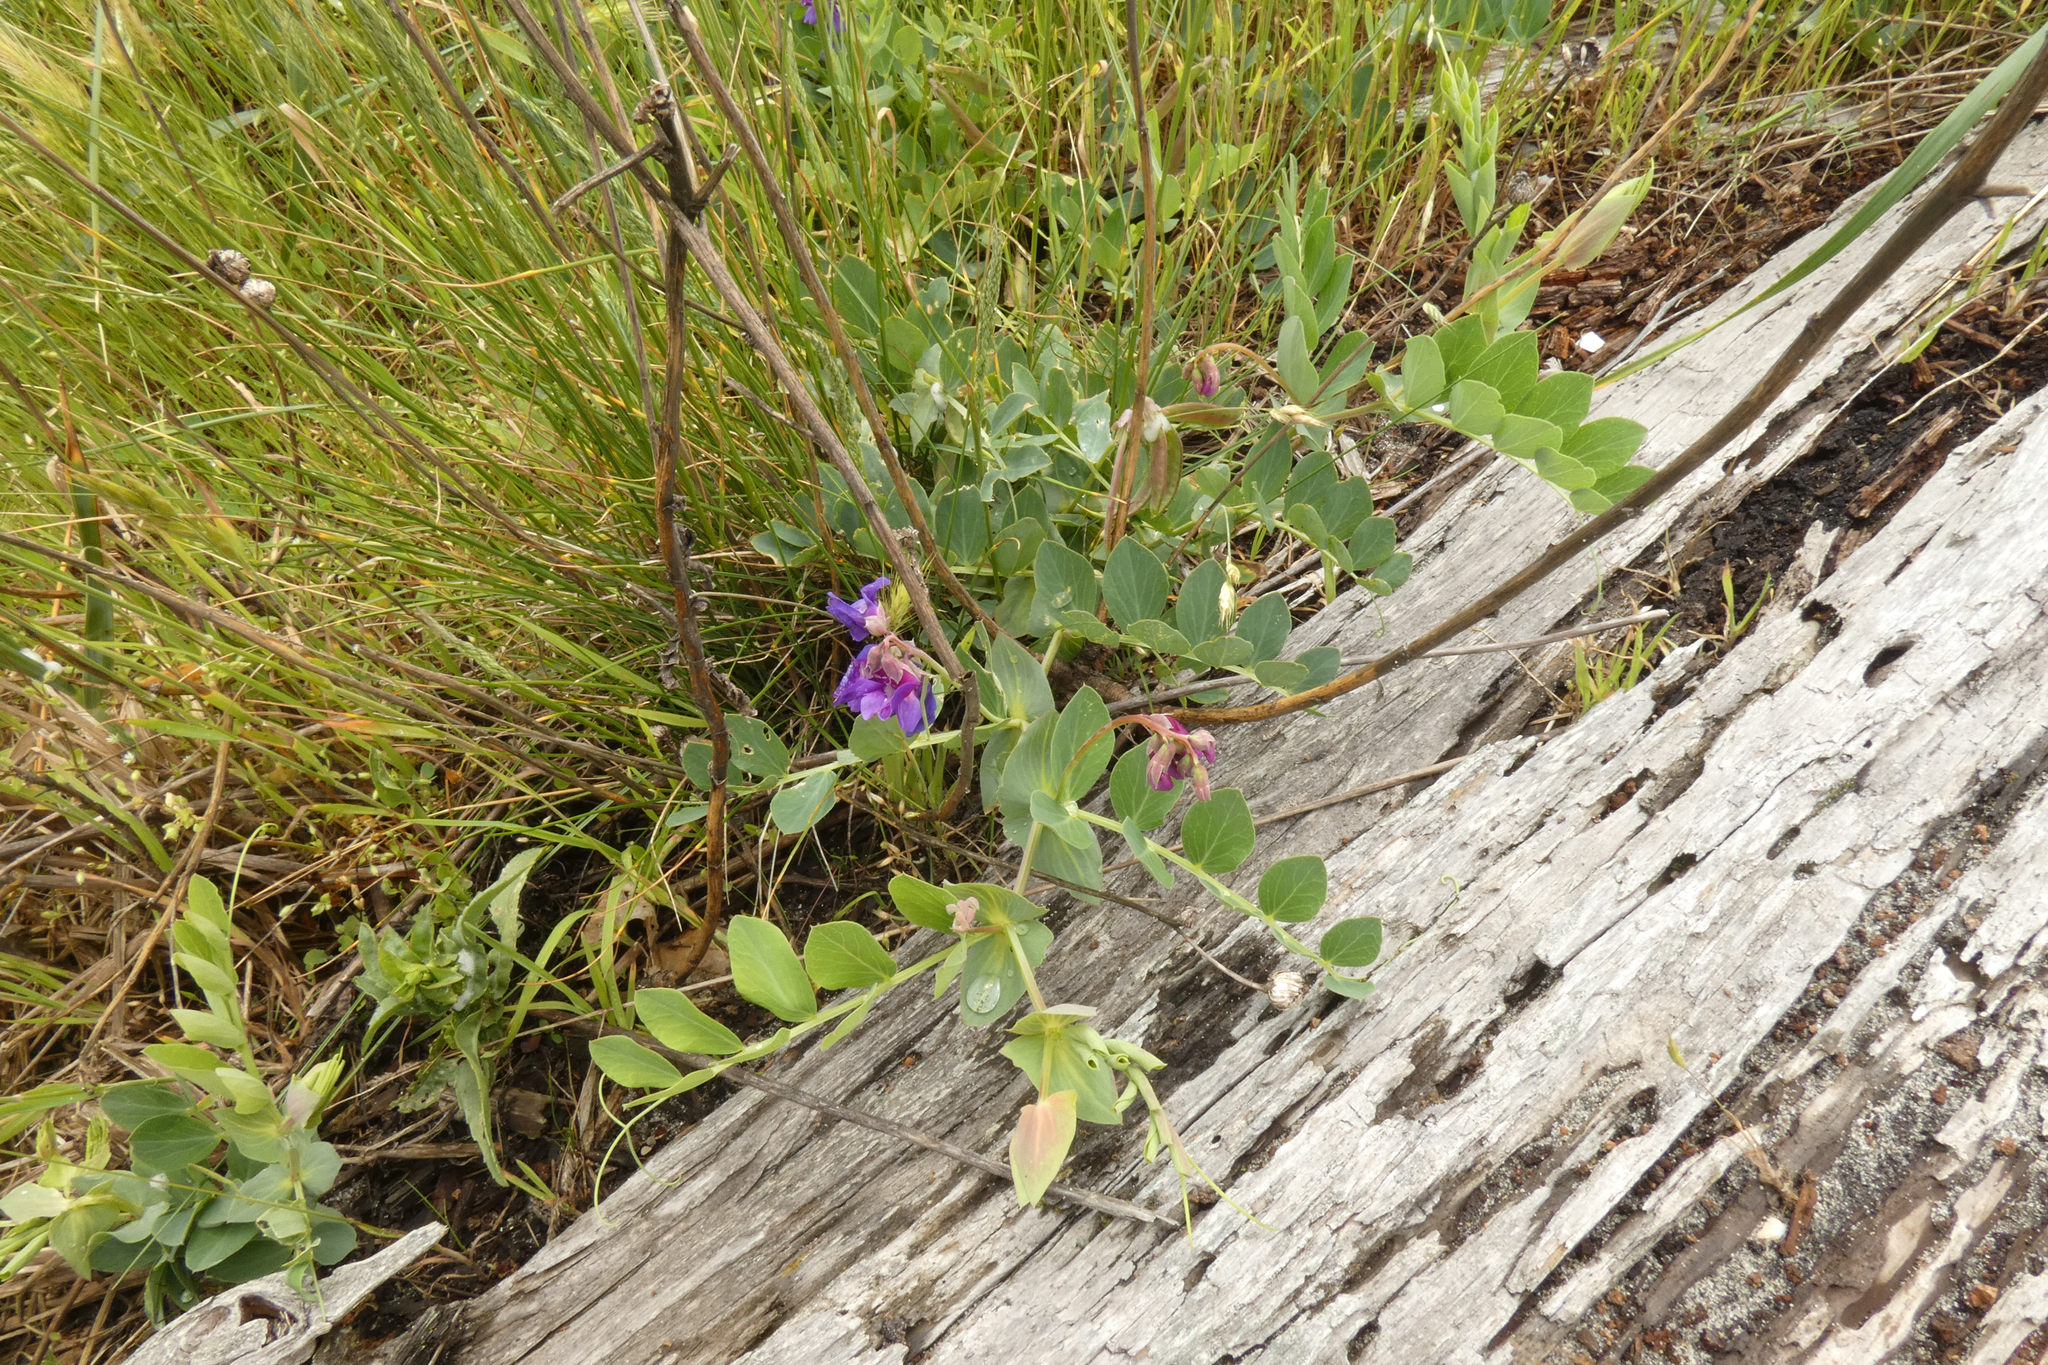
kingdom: Plantae
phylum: Tracheophyta
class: Magnoliopsida
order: Fabales
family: Fabaceae
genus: Lathyrus
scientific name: Lathyrus japonicus
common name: Sea pea
